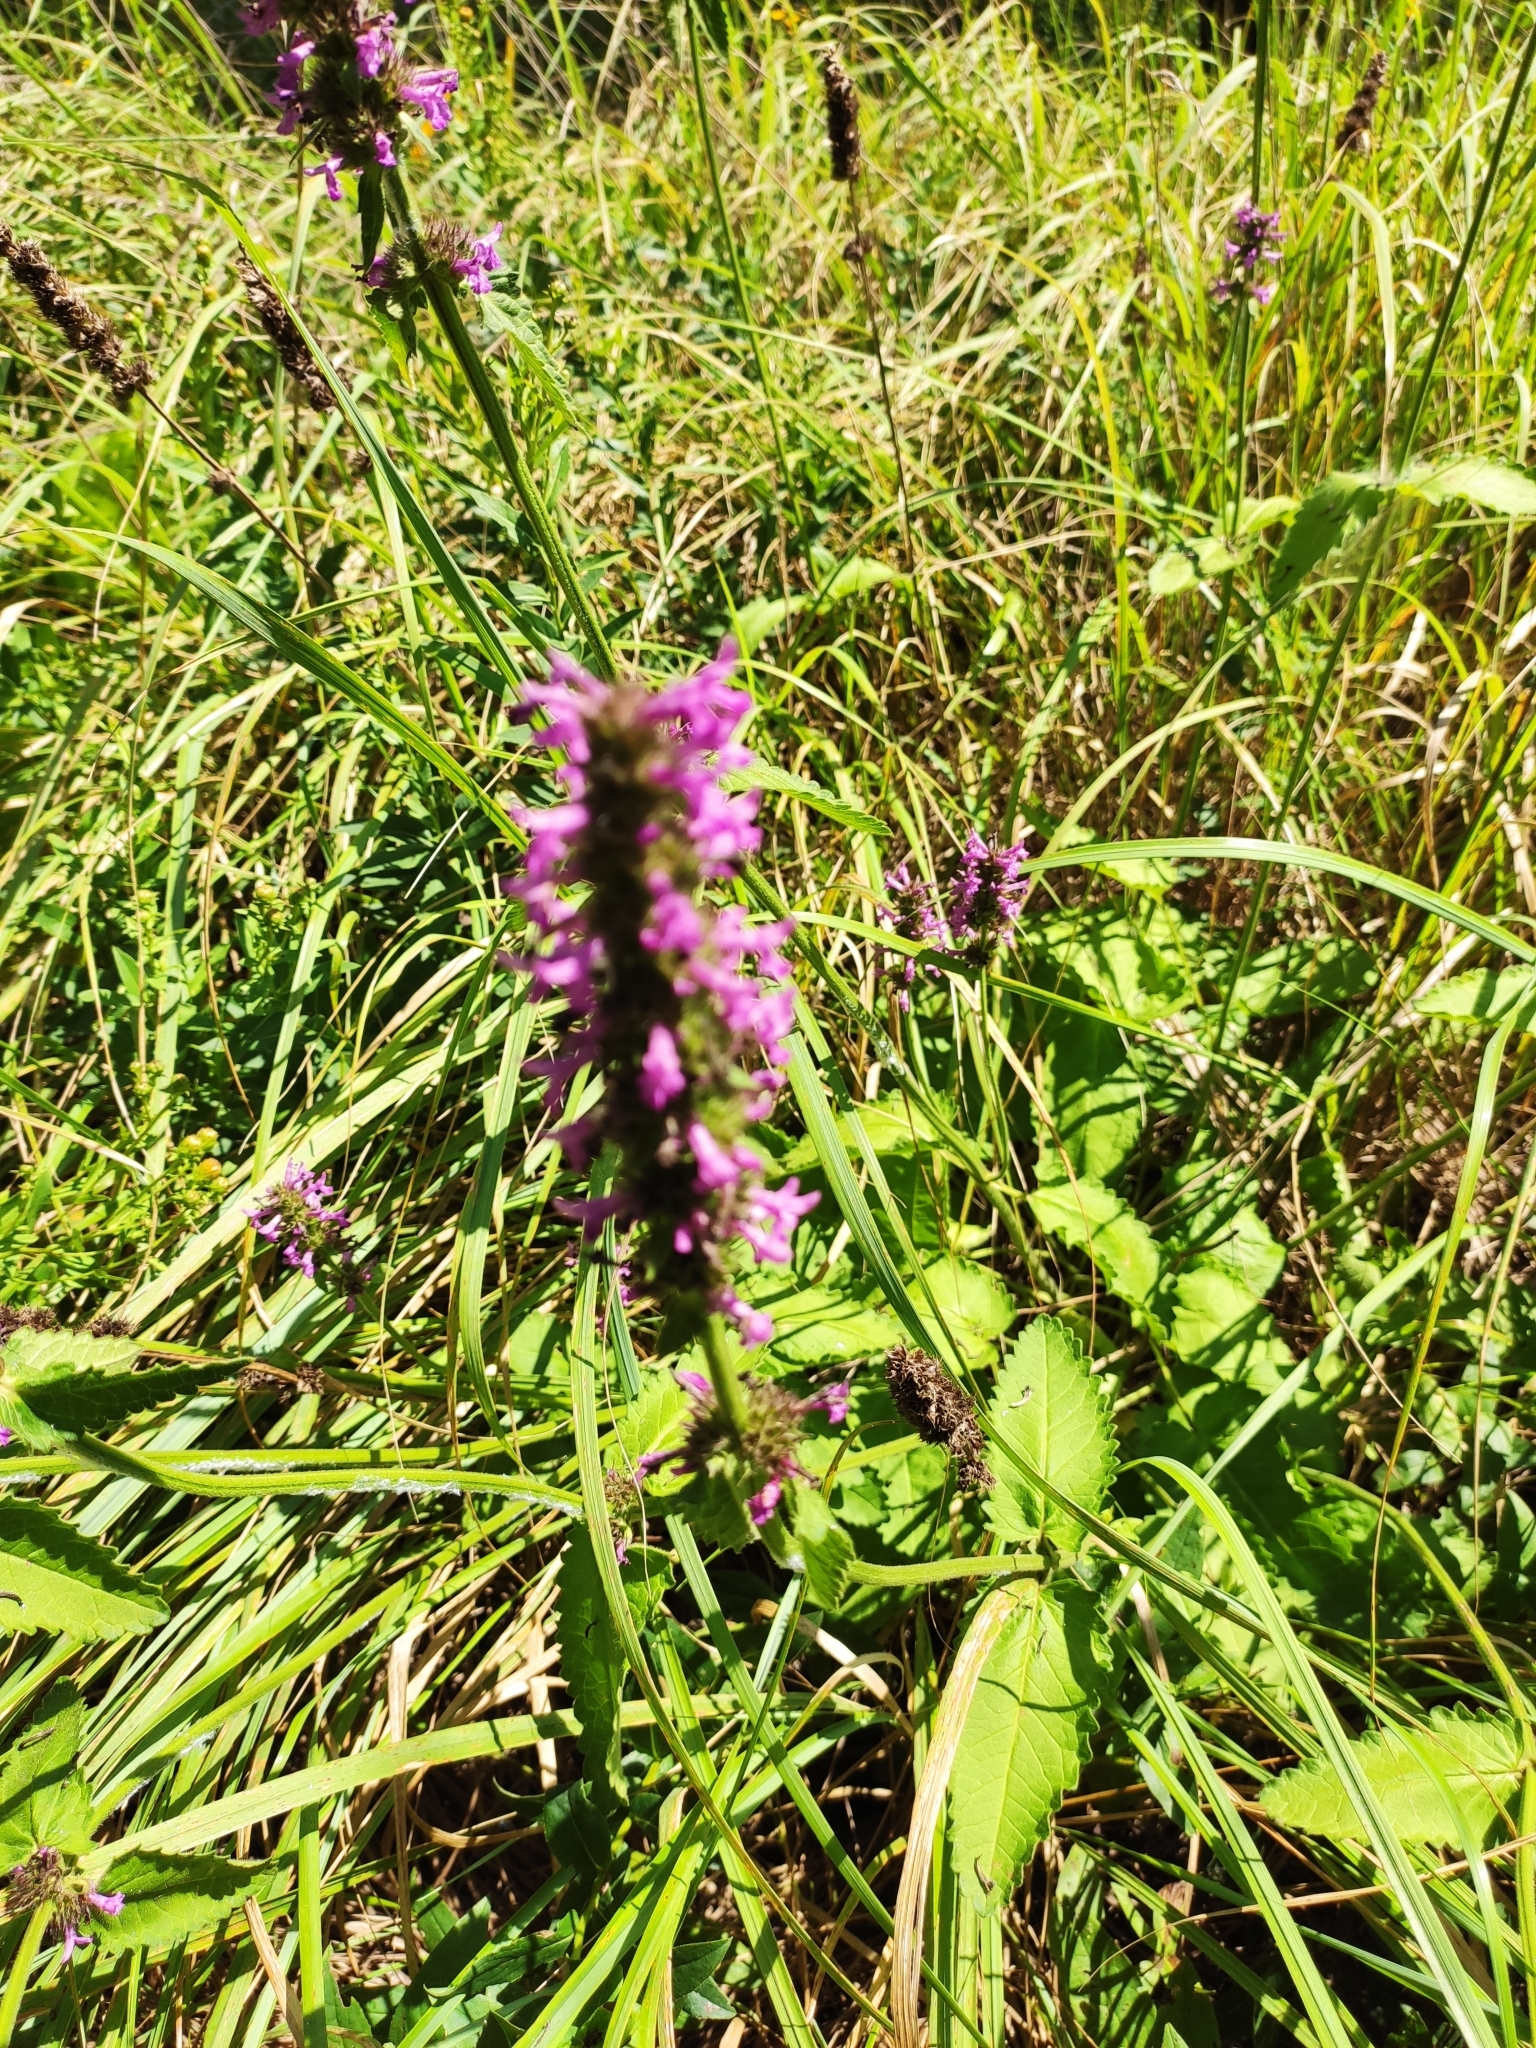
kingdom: Plantae
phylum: Tracheophyta
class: Magnoliopsida
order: Lamiales
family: Lamiaceae
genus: Betonica
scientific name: Betonica officinalis
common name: Bishop's-wort
